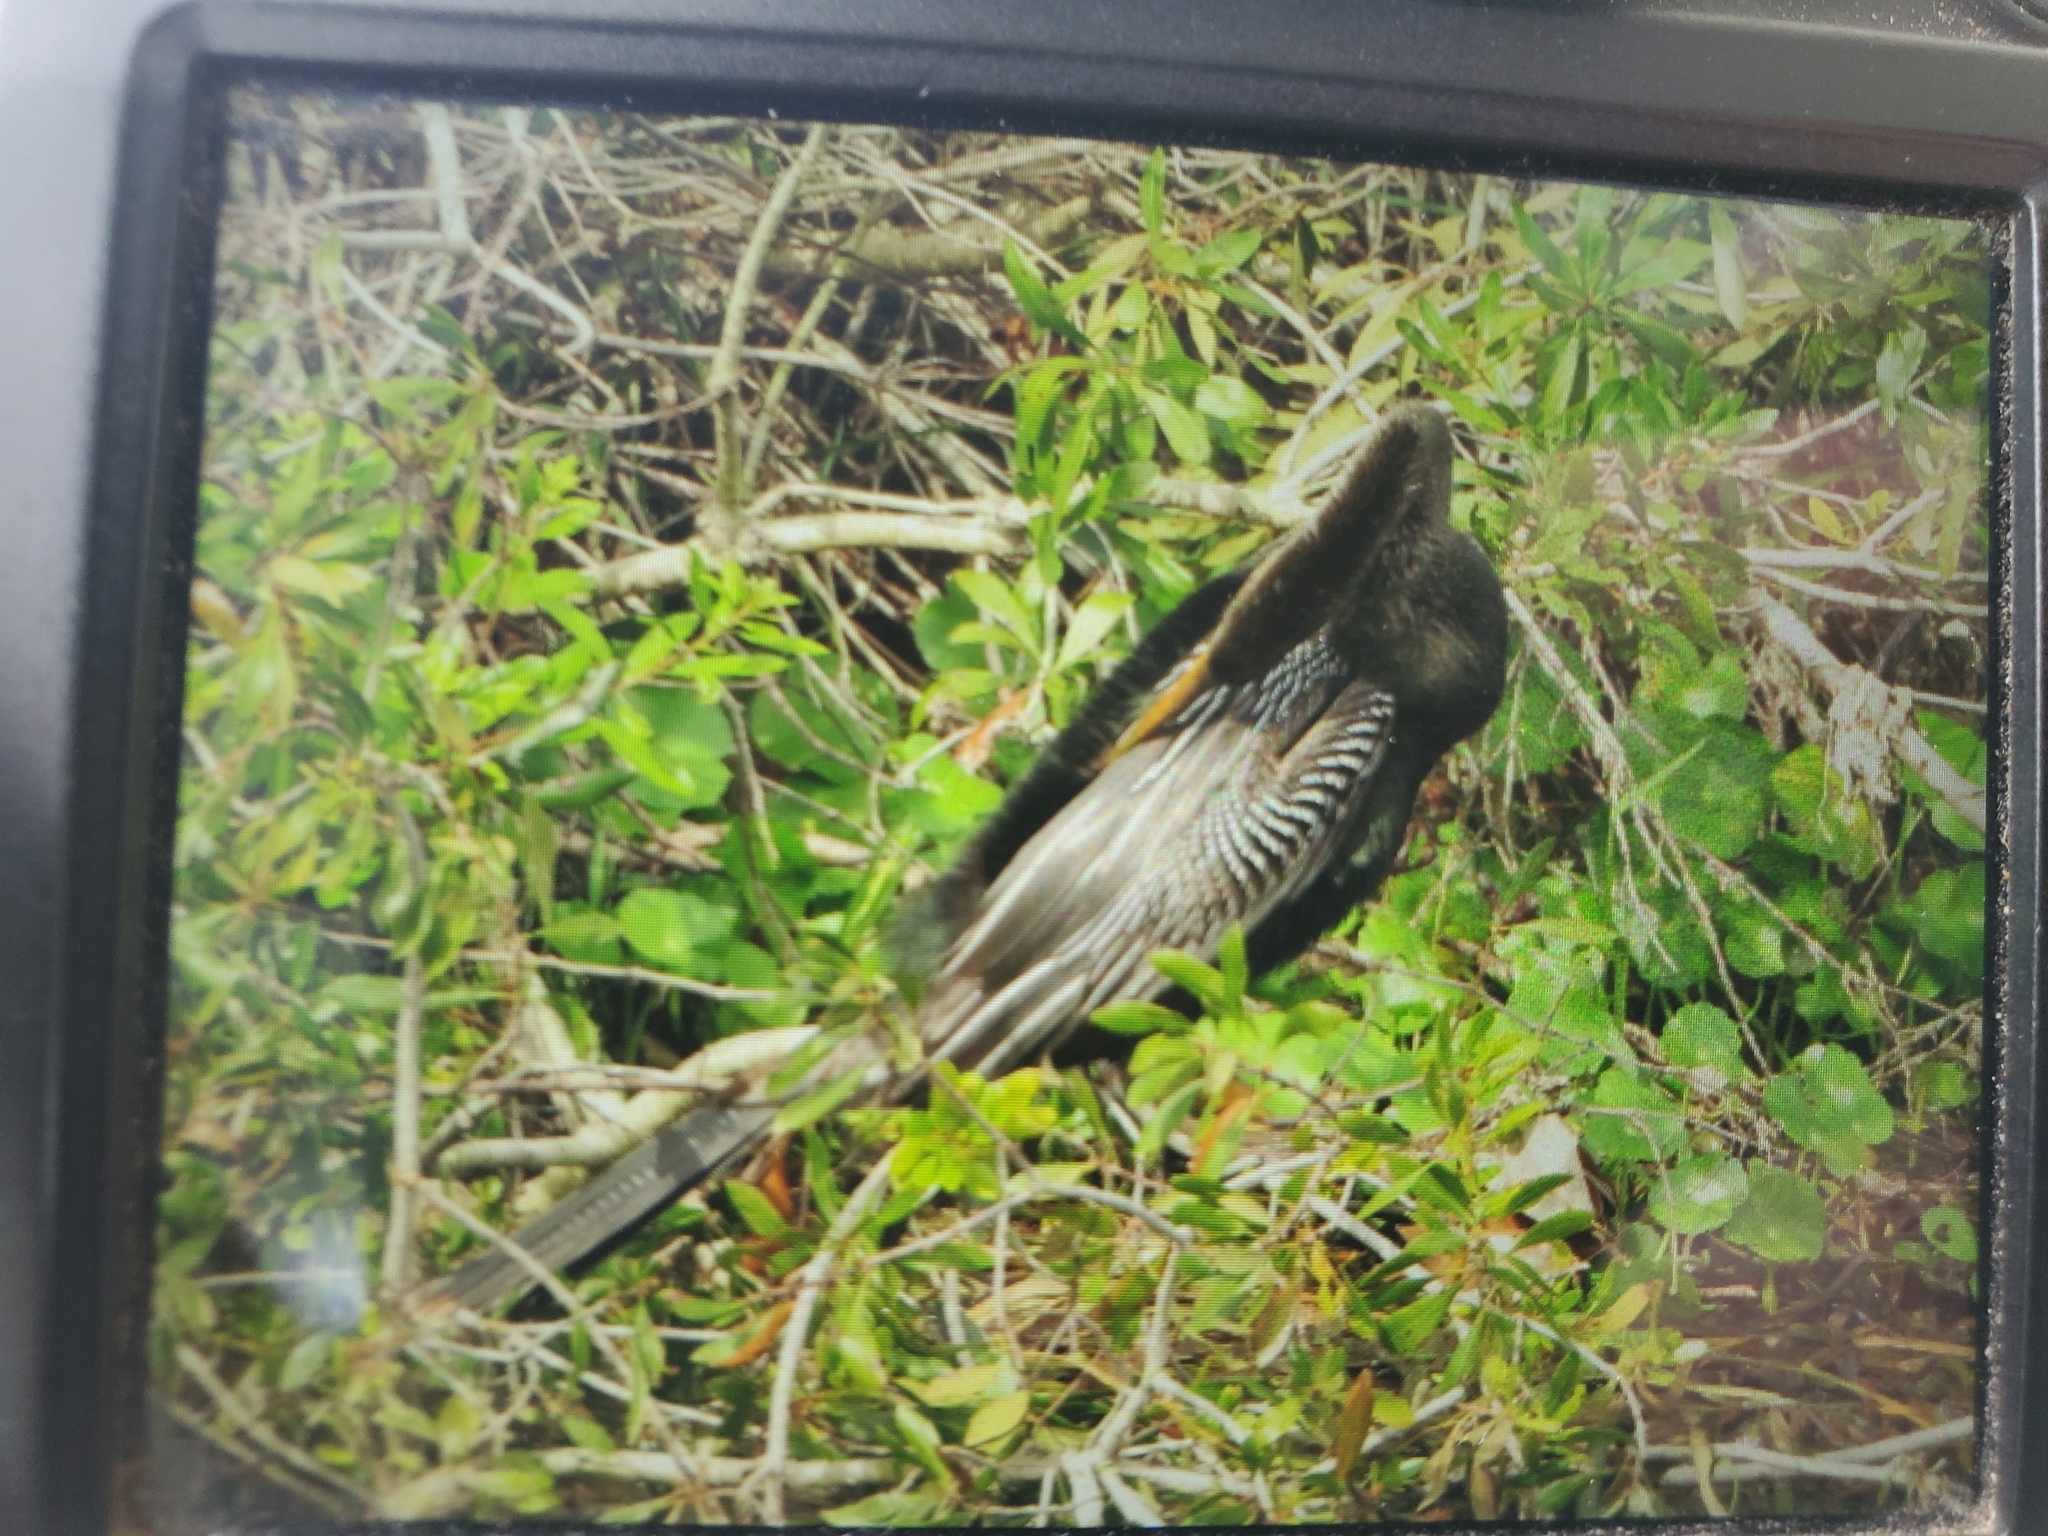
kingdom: Animalia
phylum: Chordata
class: Aves
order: Suliformes
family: Anhingidae
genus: Anhinga
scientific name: Anhinga anhinga
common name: Anhinga
